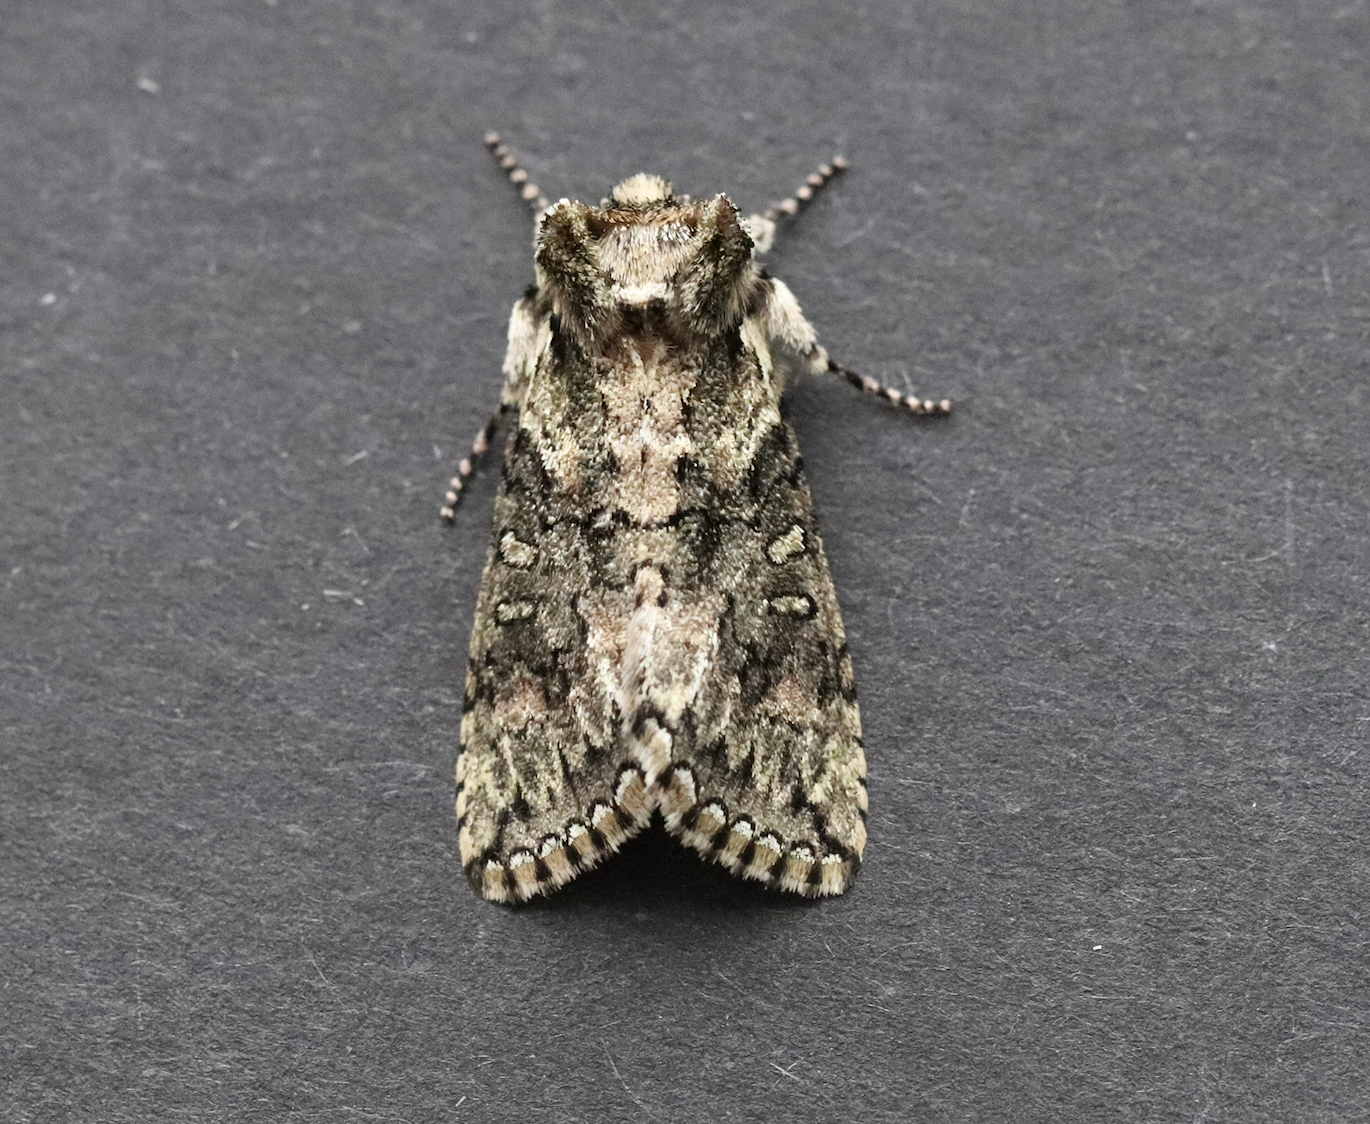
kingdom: Animalia
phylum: Arthropoda
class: Insecta
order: Lepidoptera
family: Drepanidae
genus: Polyploca
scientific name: Polyploca ridens
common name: Frosted green
